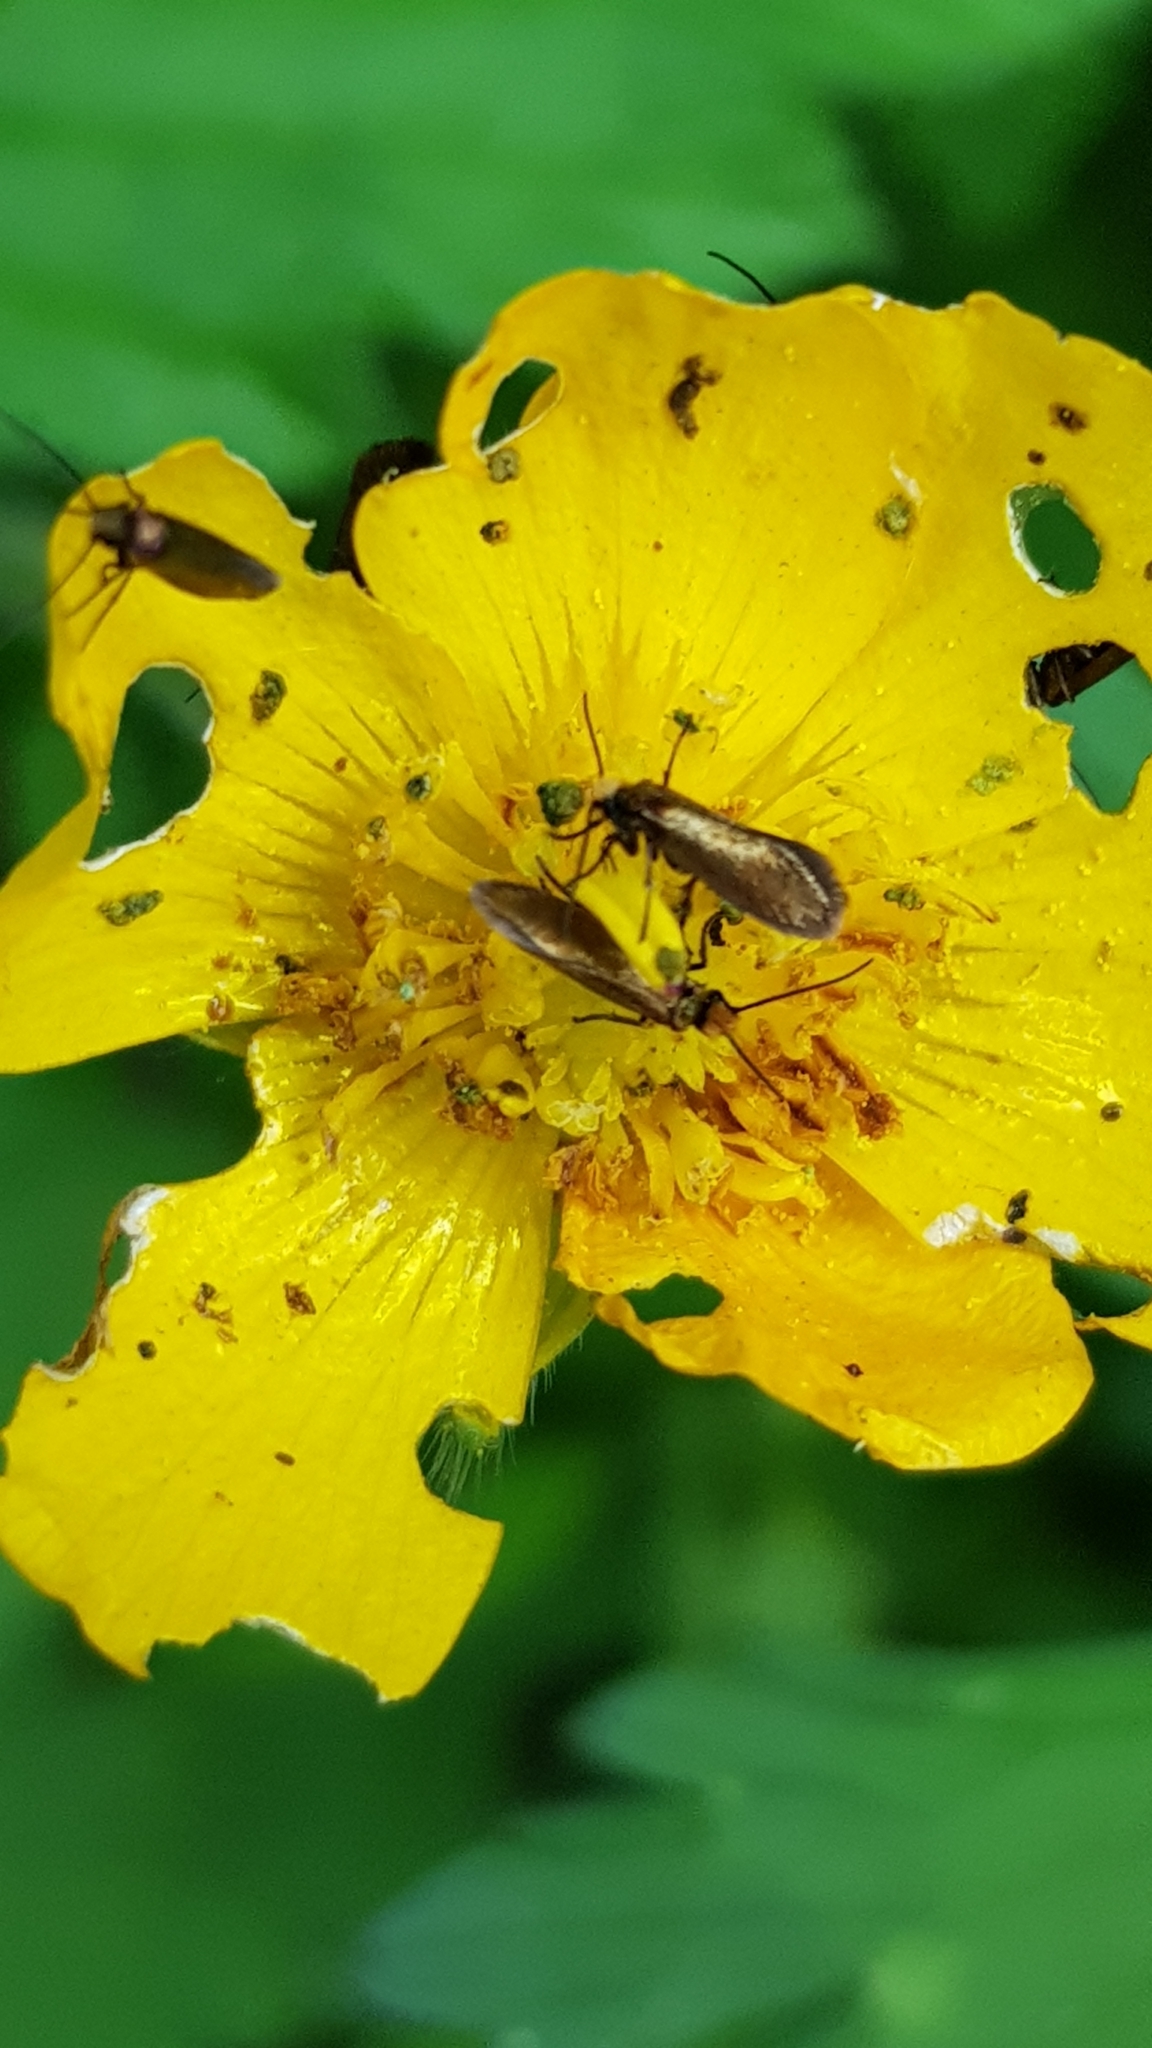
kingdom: Animalia
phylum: Arthropoda
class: Insecta
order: Lepidoptera
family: Micropterigidae
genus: Micropterix
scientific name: Micropterix calthella
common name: Plain gold
